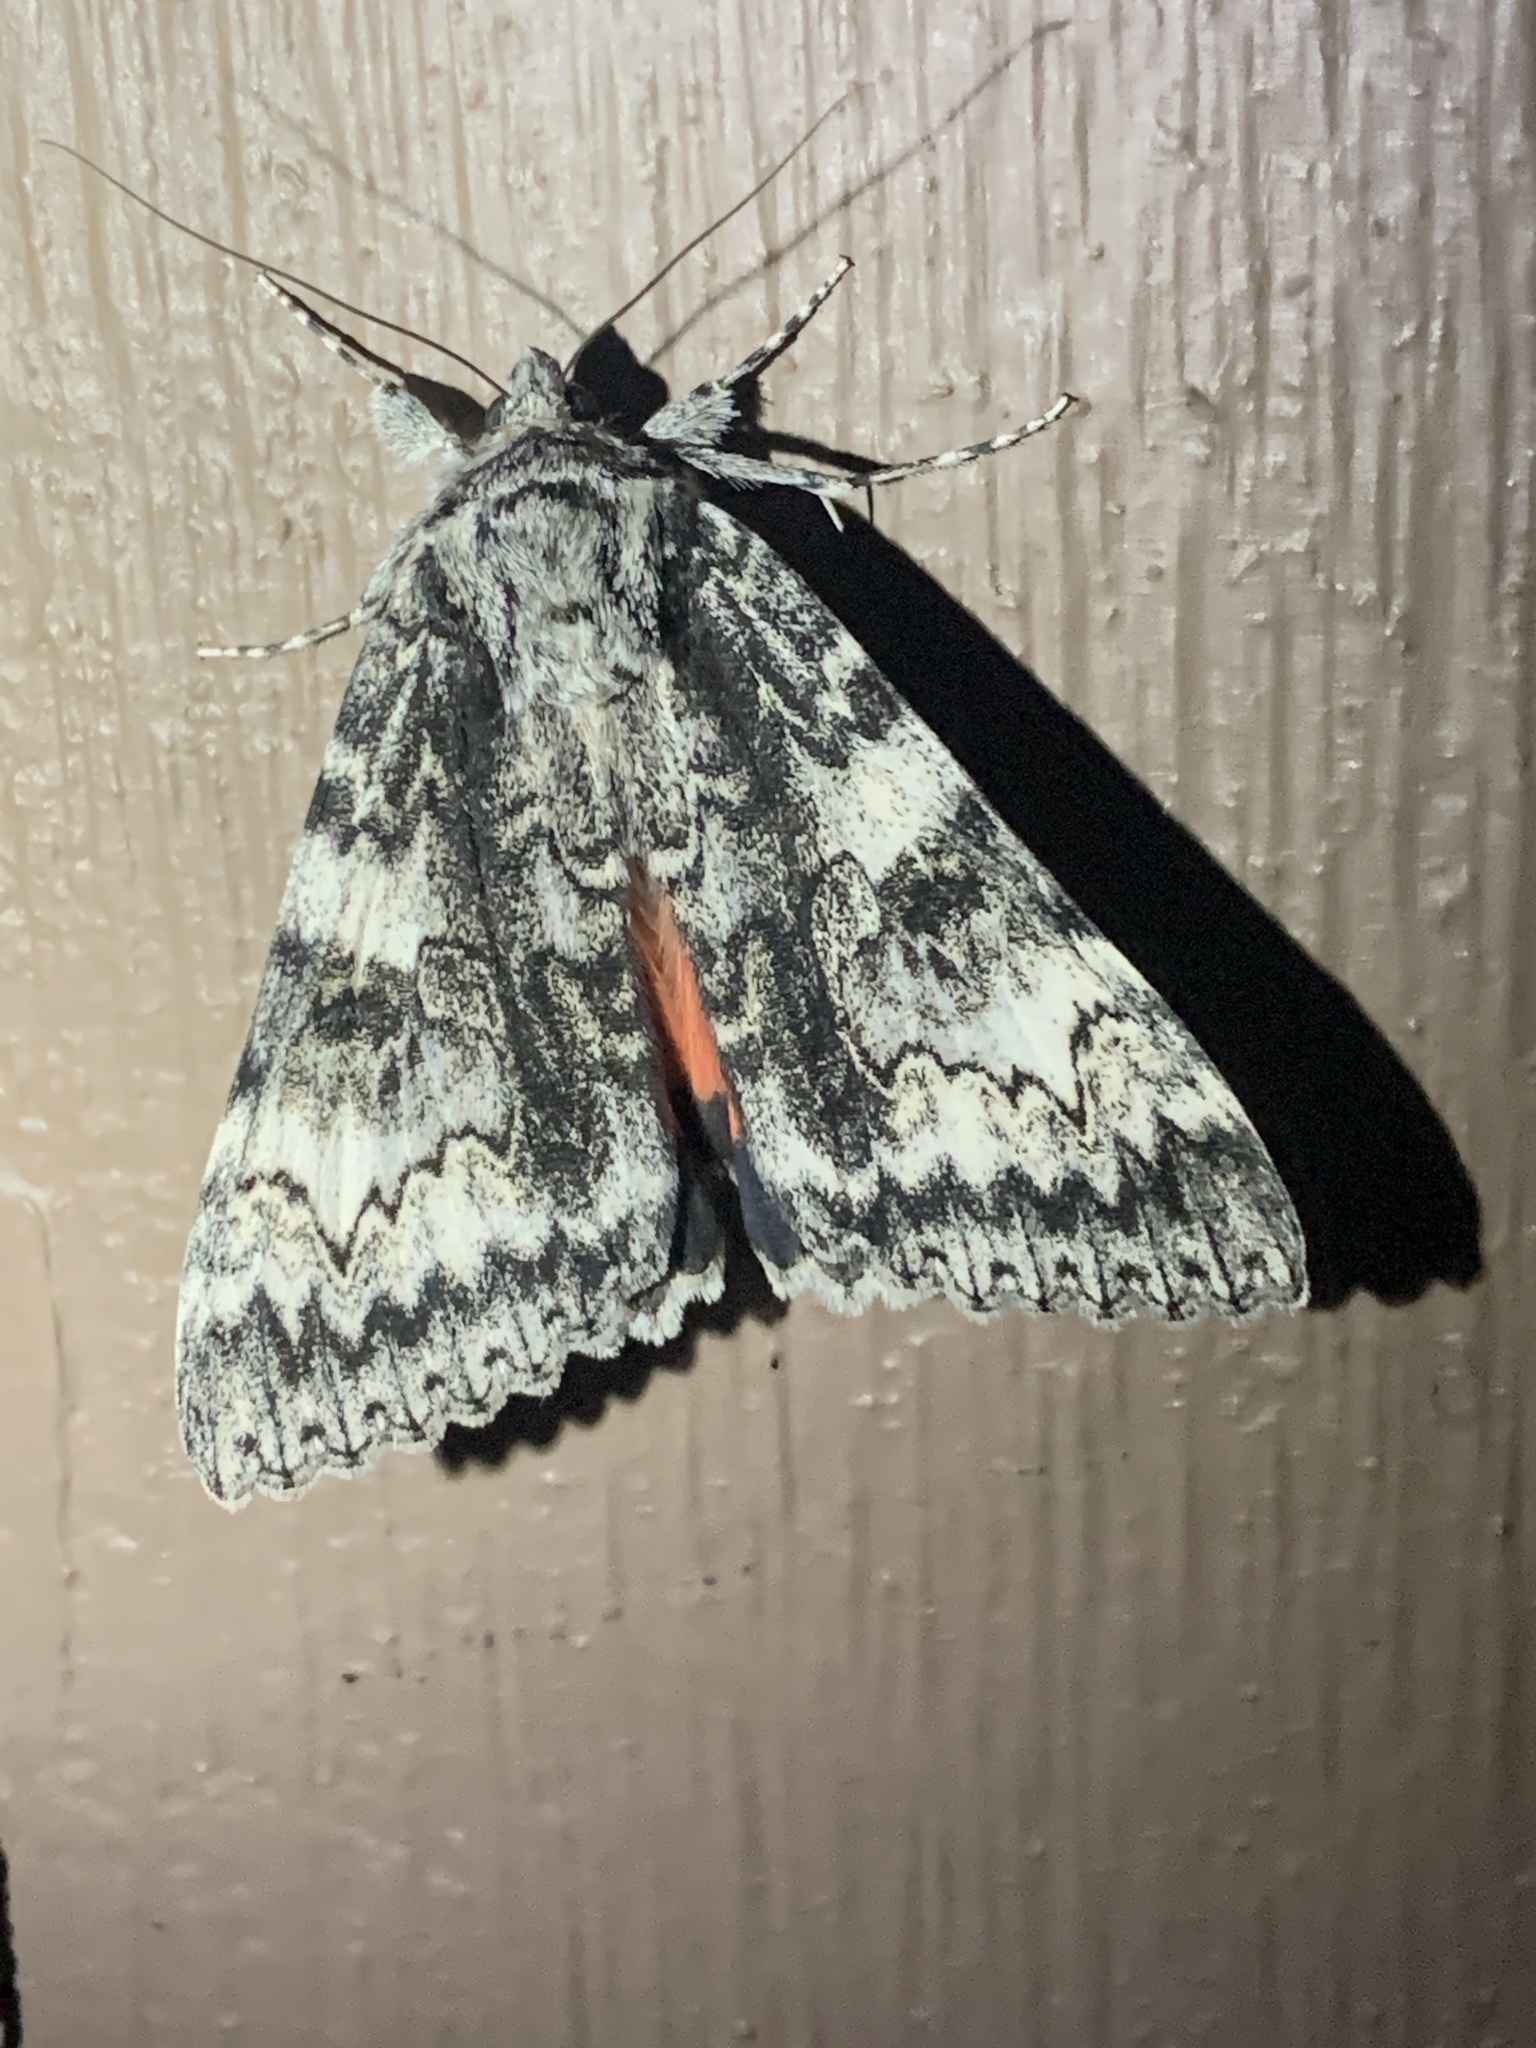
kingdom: Animalia
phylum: Arthropoda
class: Insecta
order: Lepidoptera
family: Erebidae
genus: Catocala
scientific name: Catocala semirelicta
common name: Semirelict underwing moth
